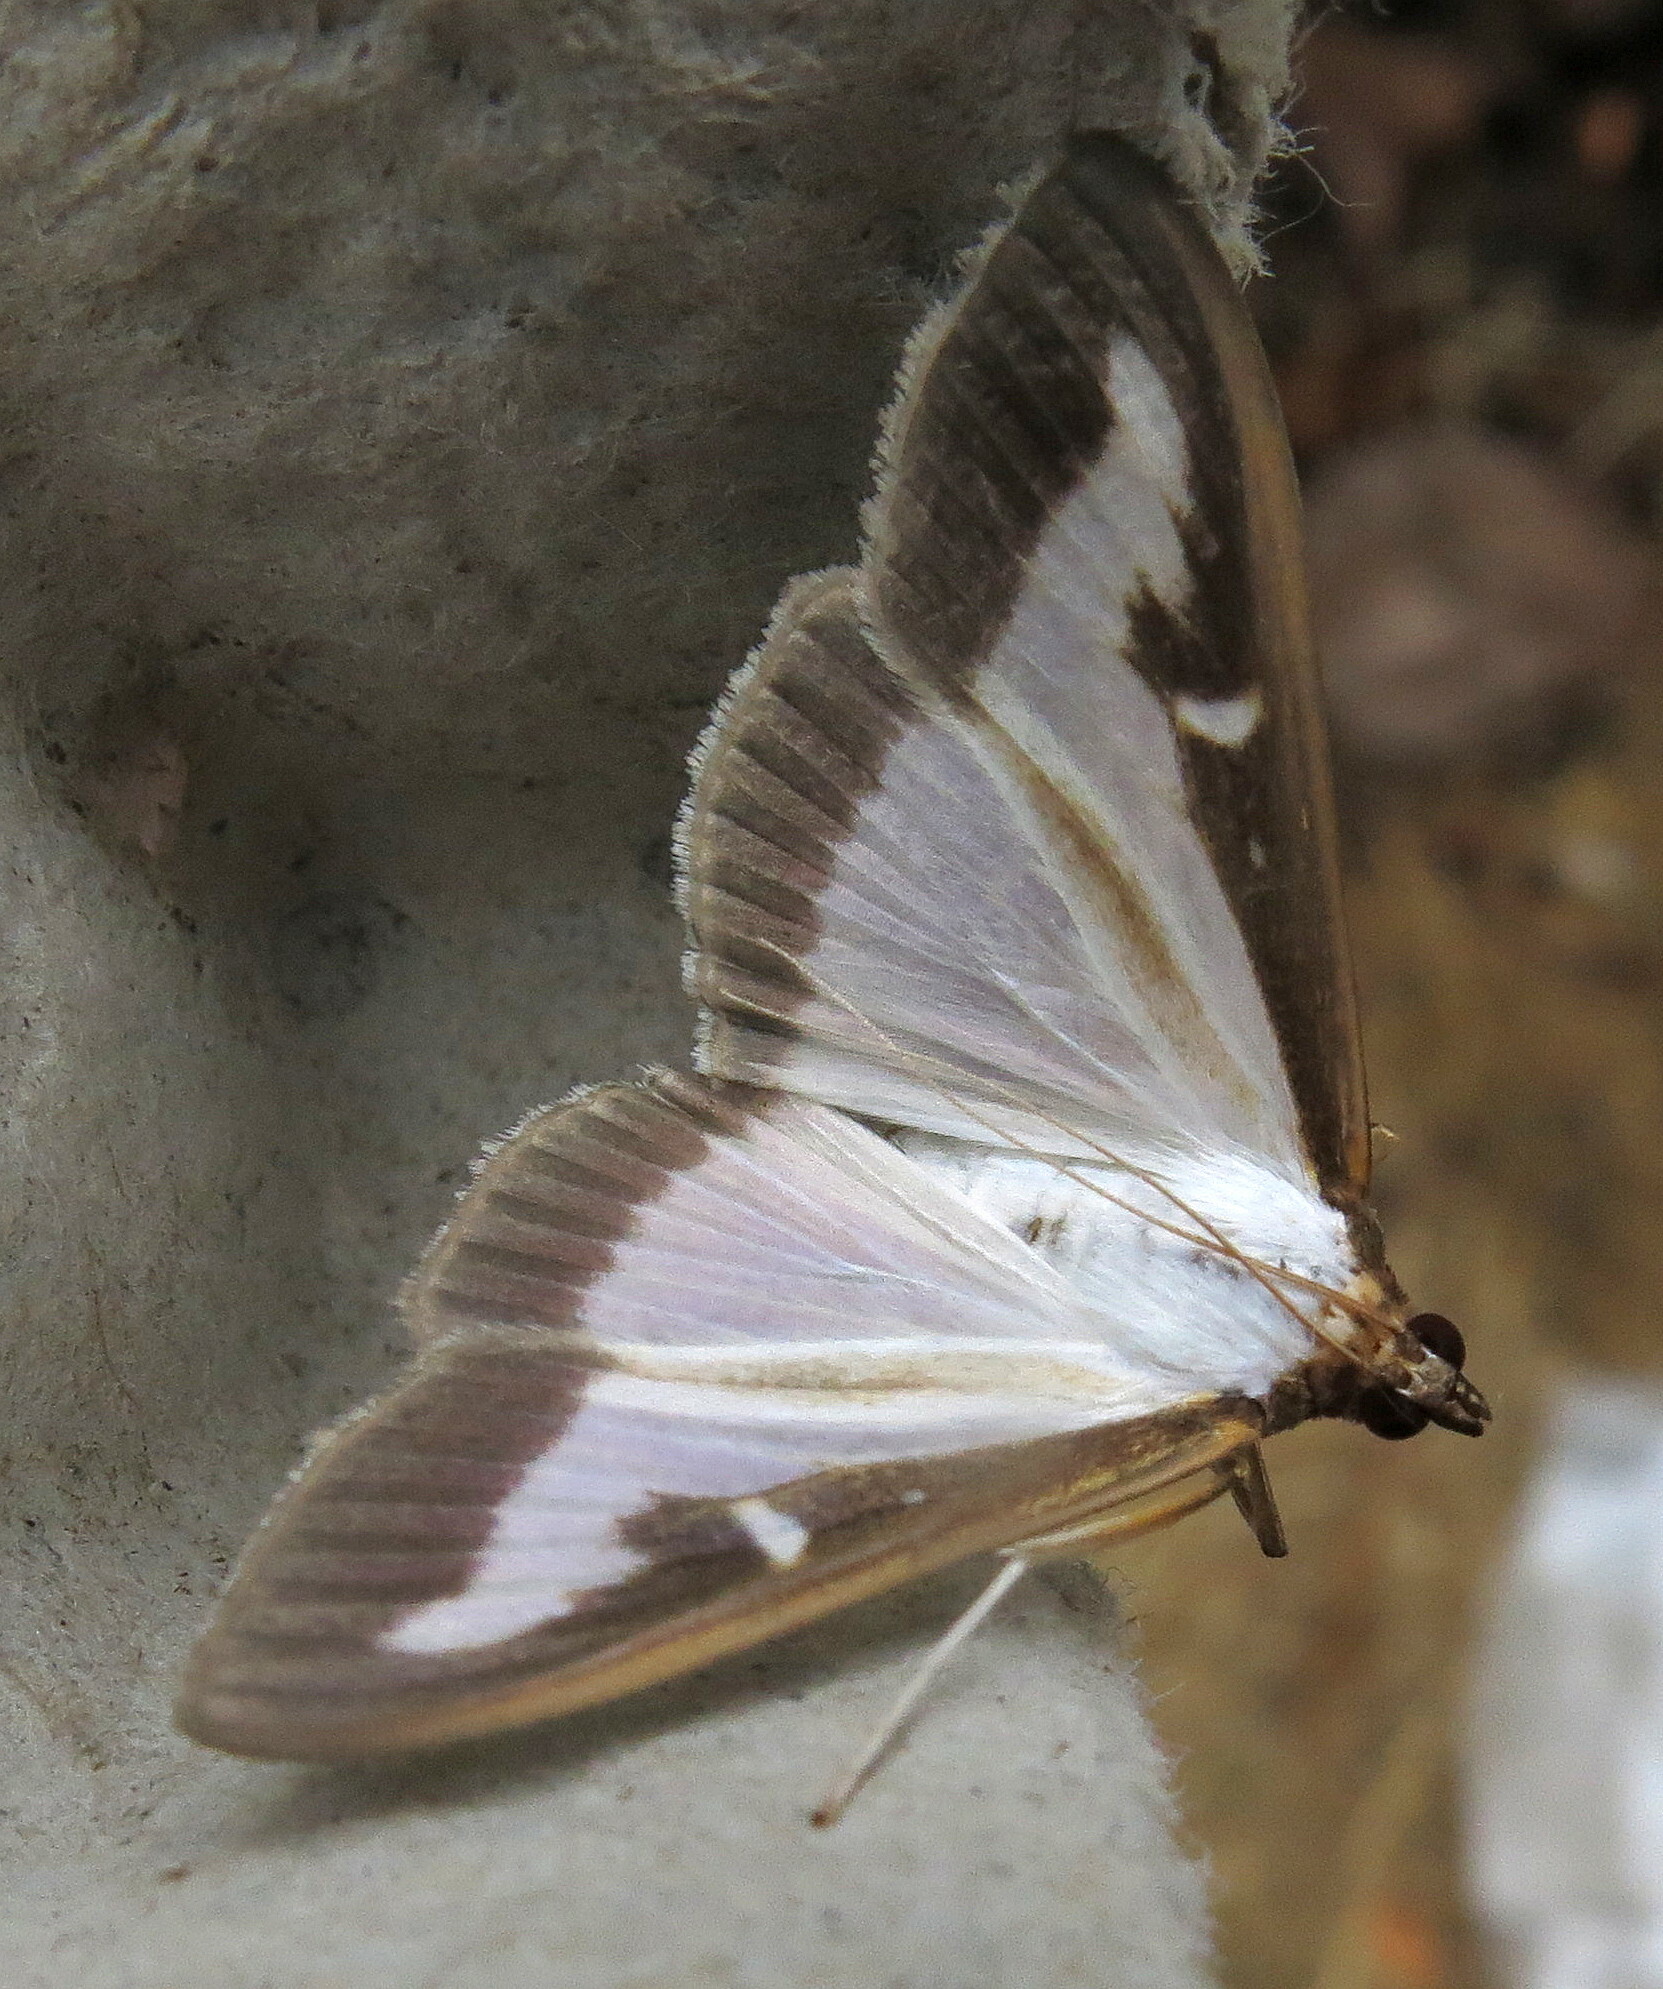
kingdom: Animalia
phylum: Arthropoda
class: Insecta
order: Lepidoptera
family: Crambidae
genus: Cydalima
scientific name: Cydalima perspectalis
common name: Box tree moth
